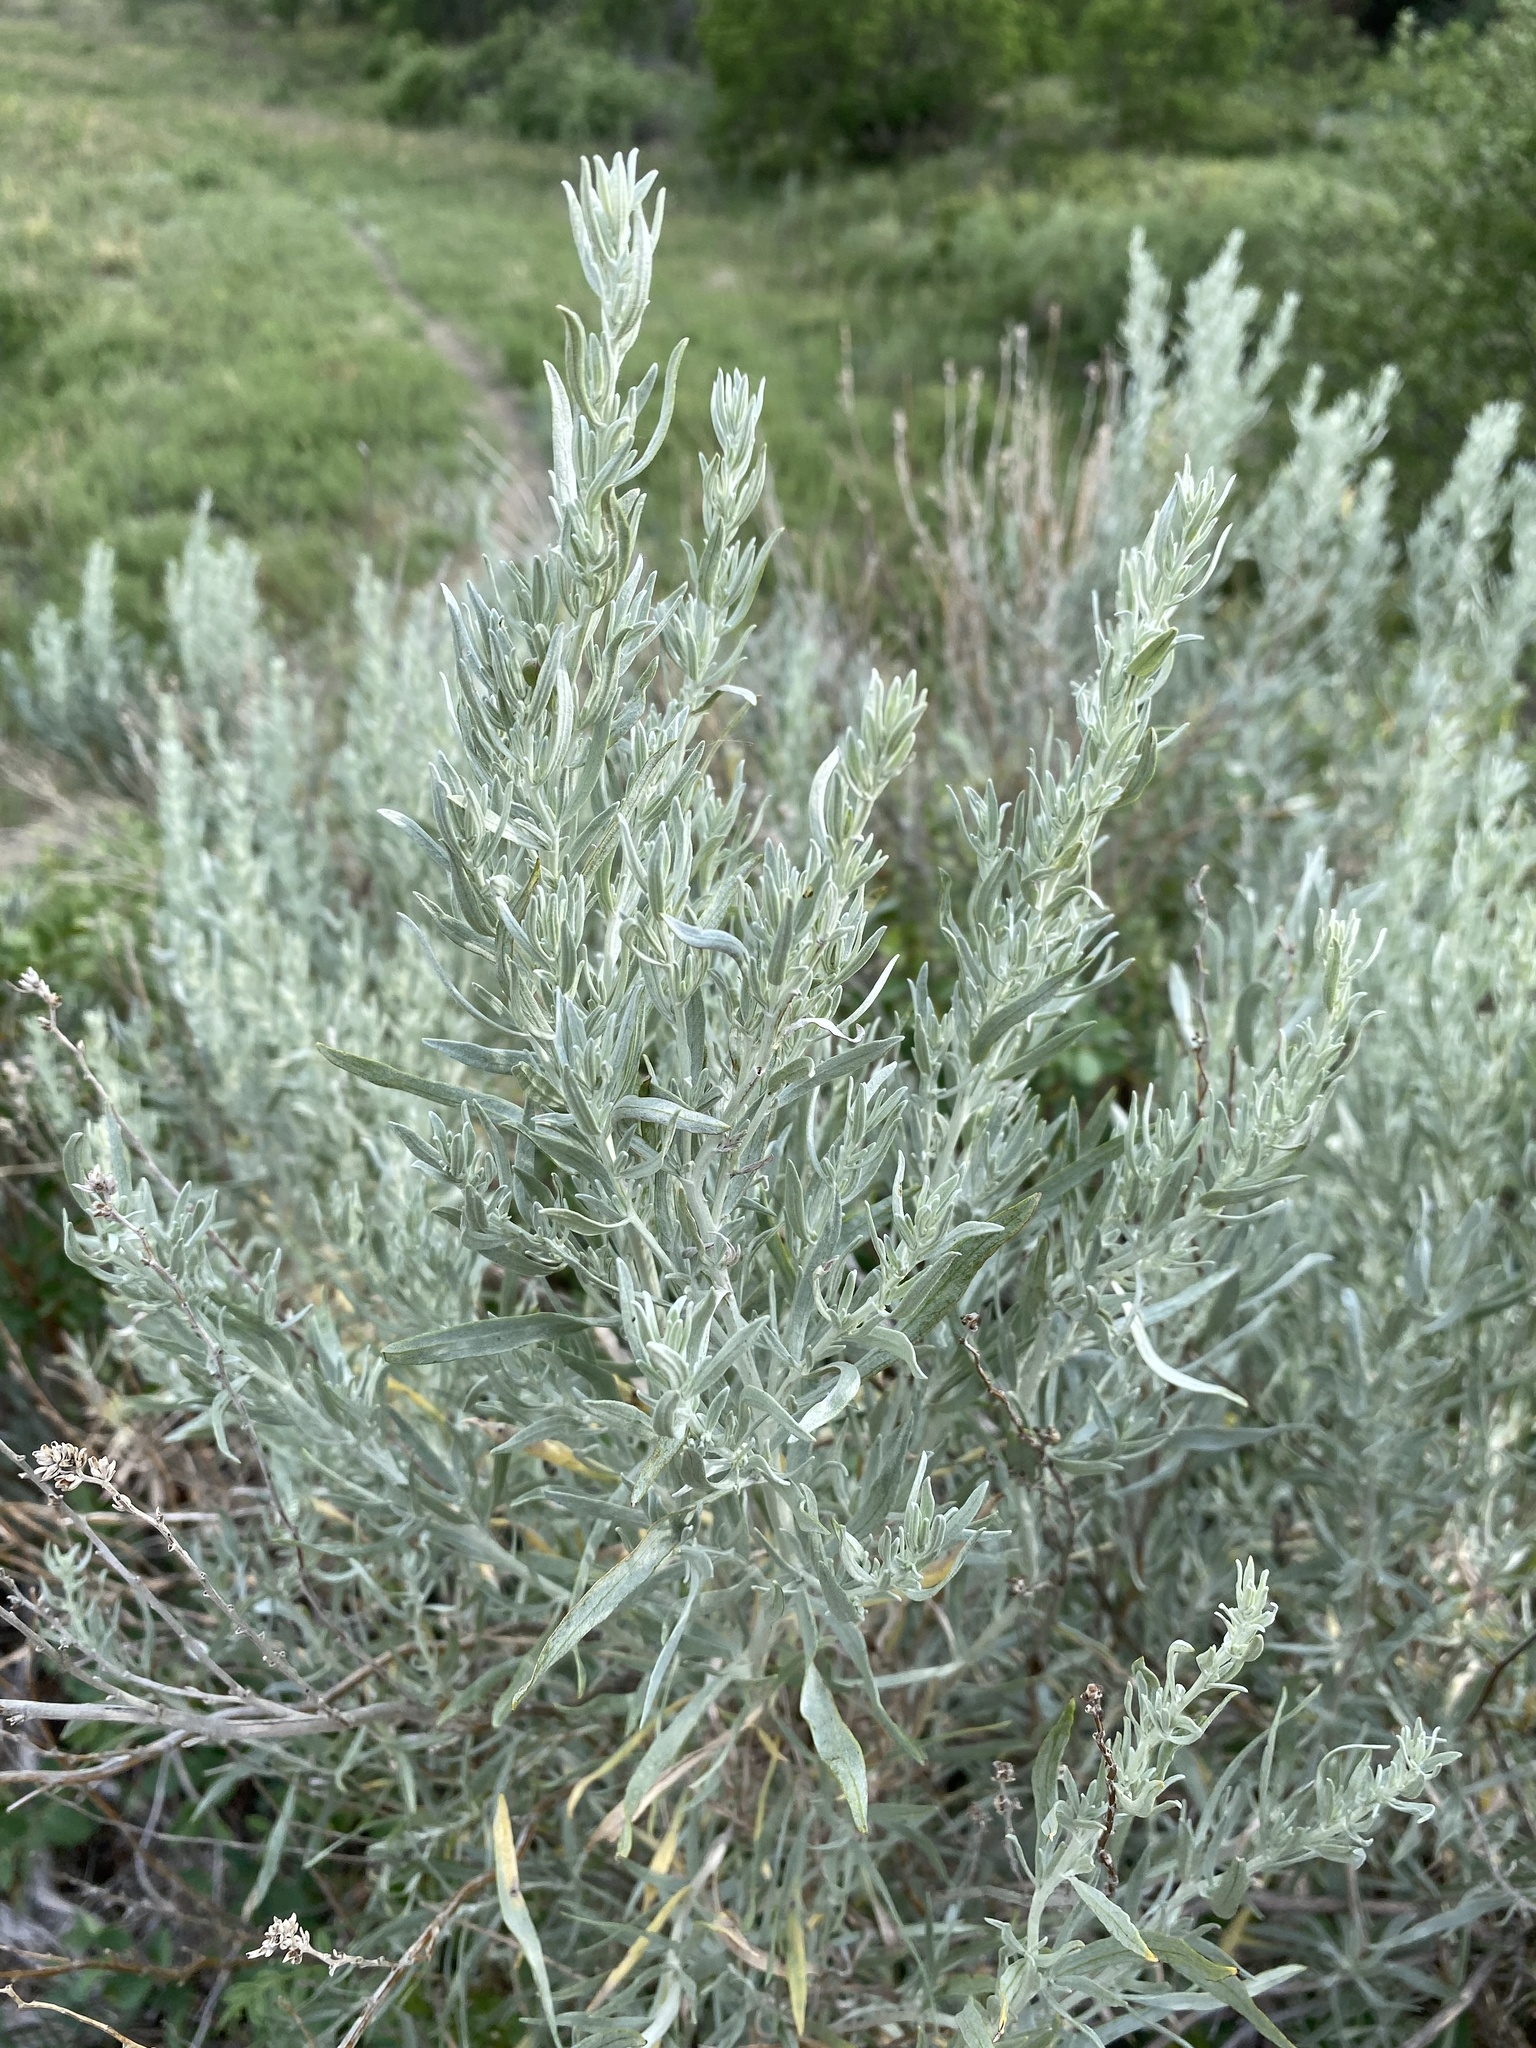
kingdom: Plantae
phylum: Tracheophyta
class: Magnoliopsida
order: Asterales
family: Asteraceae
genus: Artemisia
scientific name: Artemisia cana
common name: Silver sagebrush
